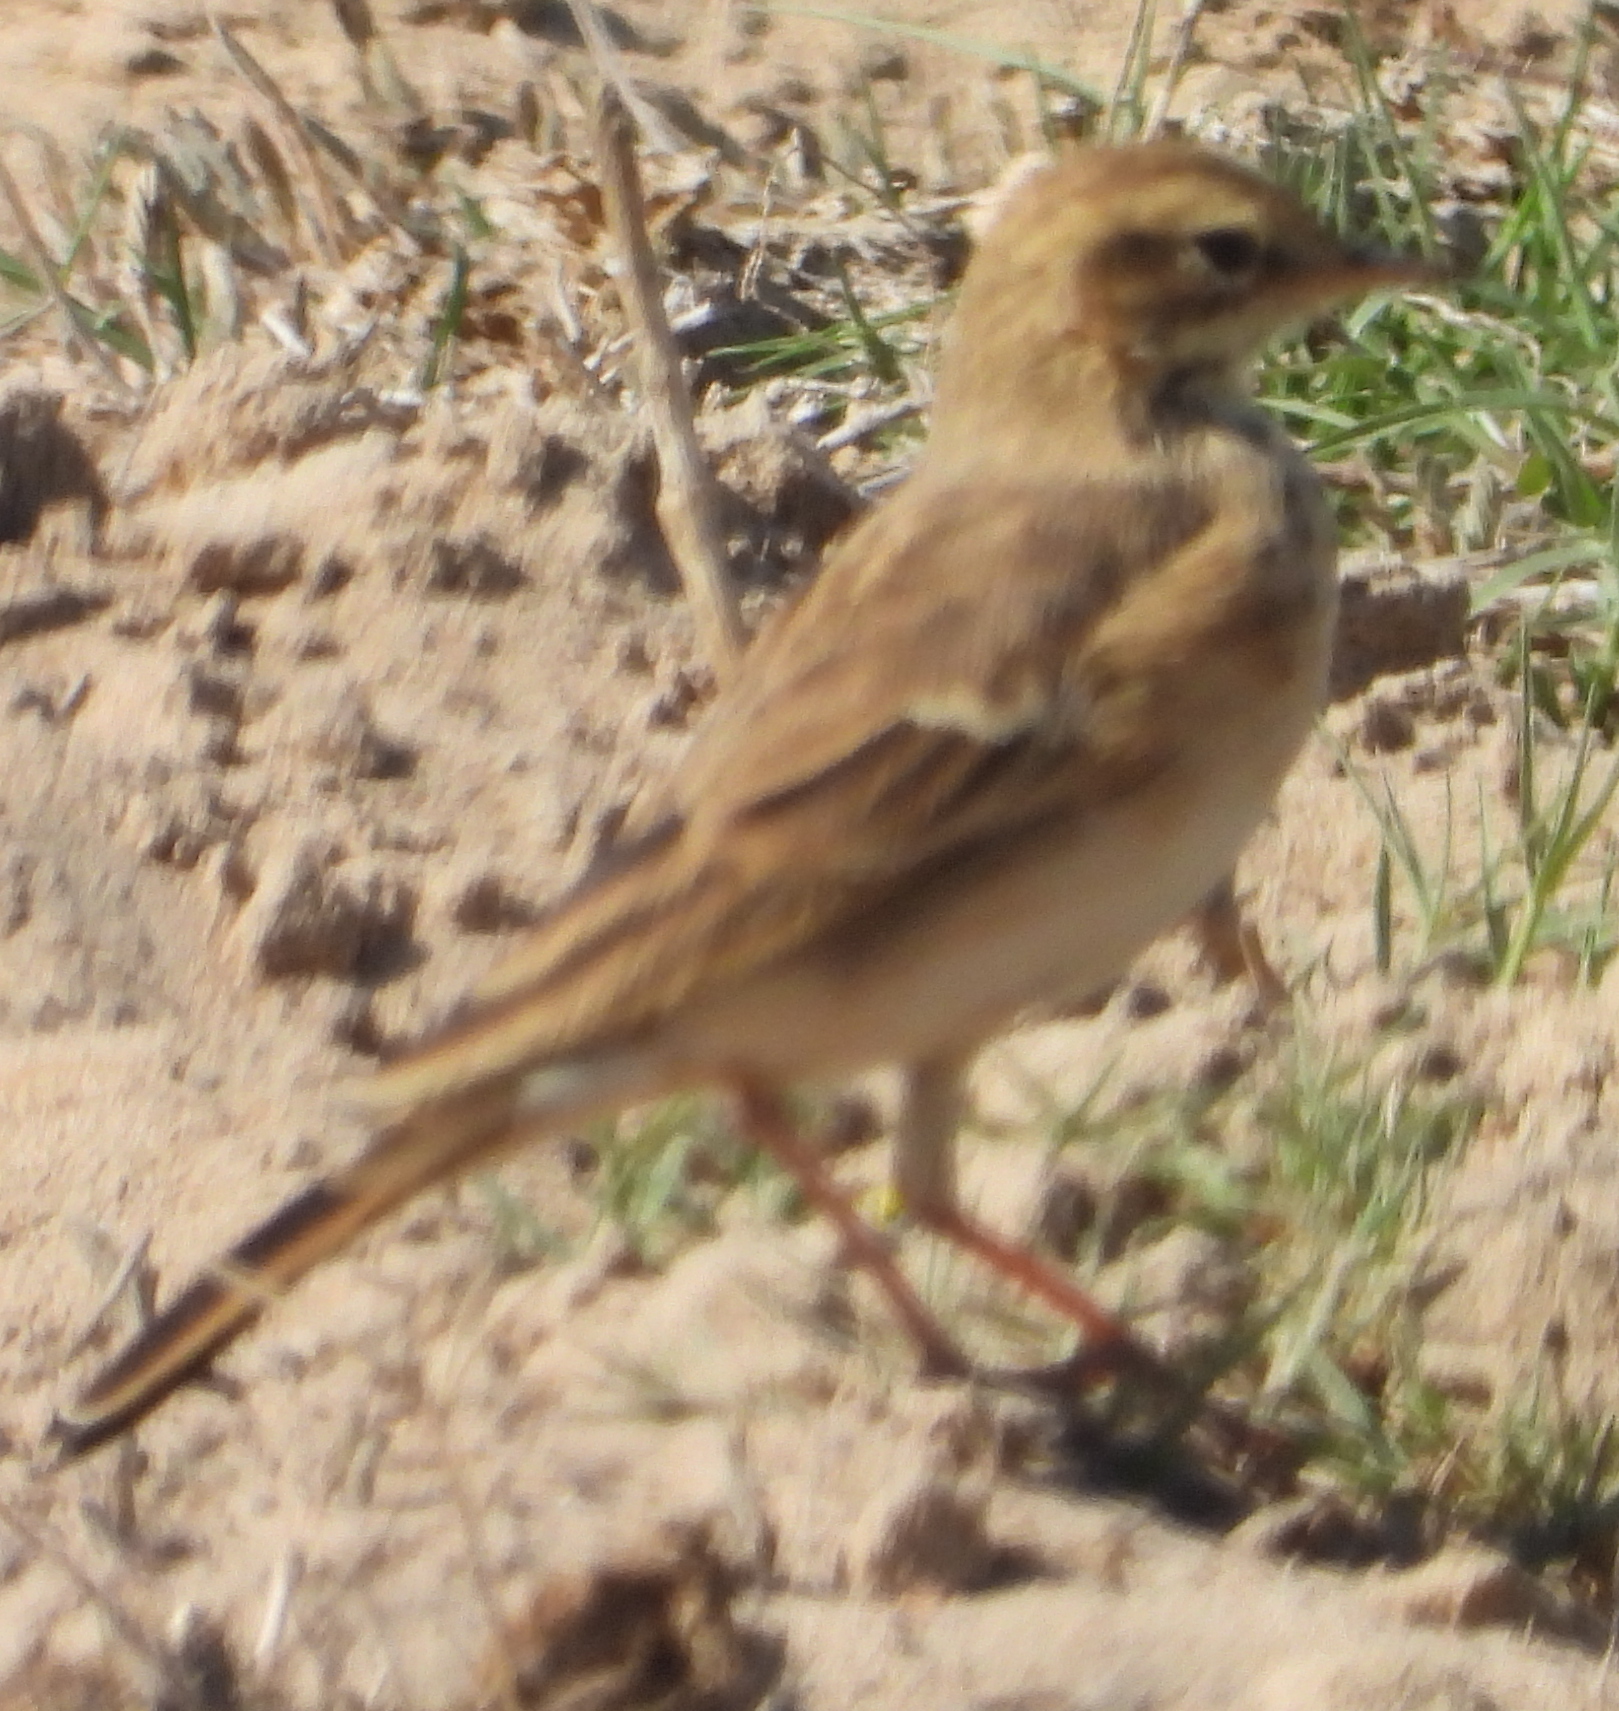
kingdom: Animalia
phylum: Chordata
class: Aves
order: Passeriformes
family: Motacillidae
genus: Anthus
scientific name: Anthus cinnamomeus
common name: African pipit
